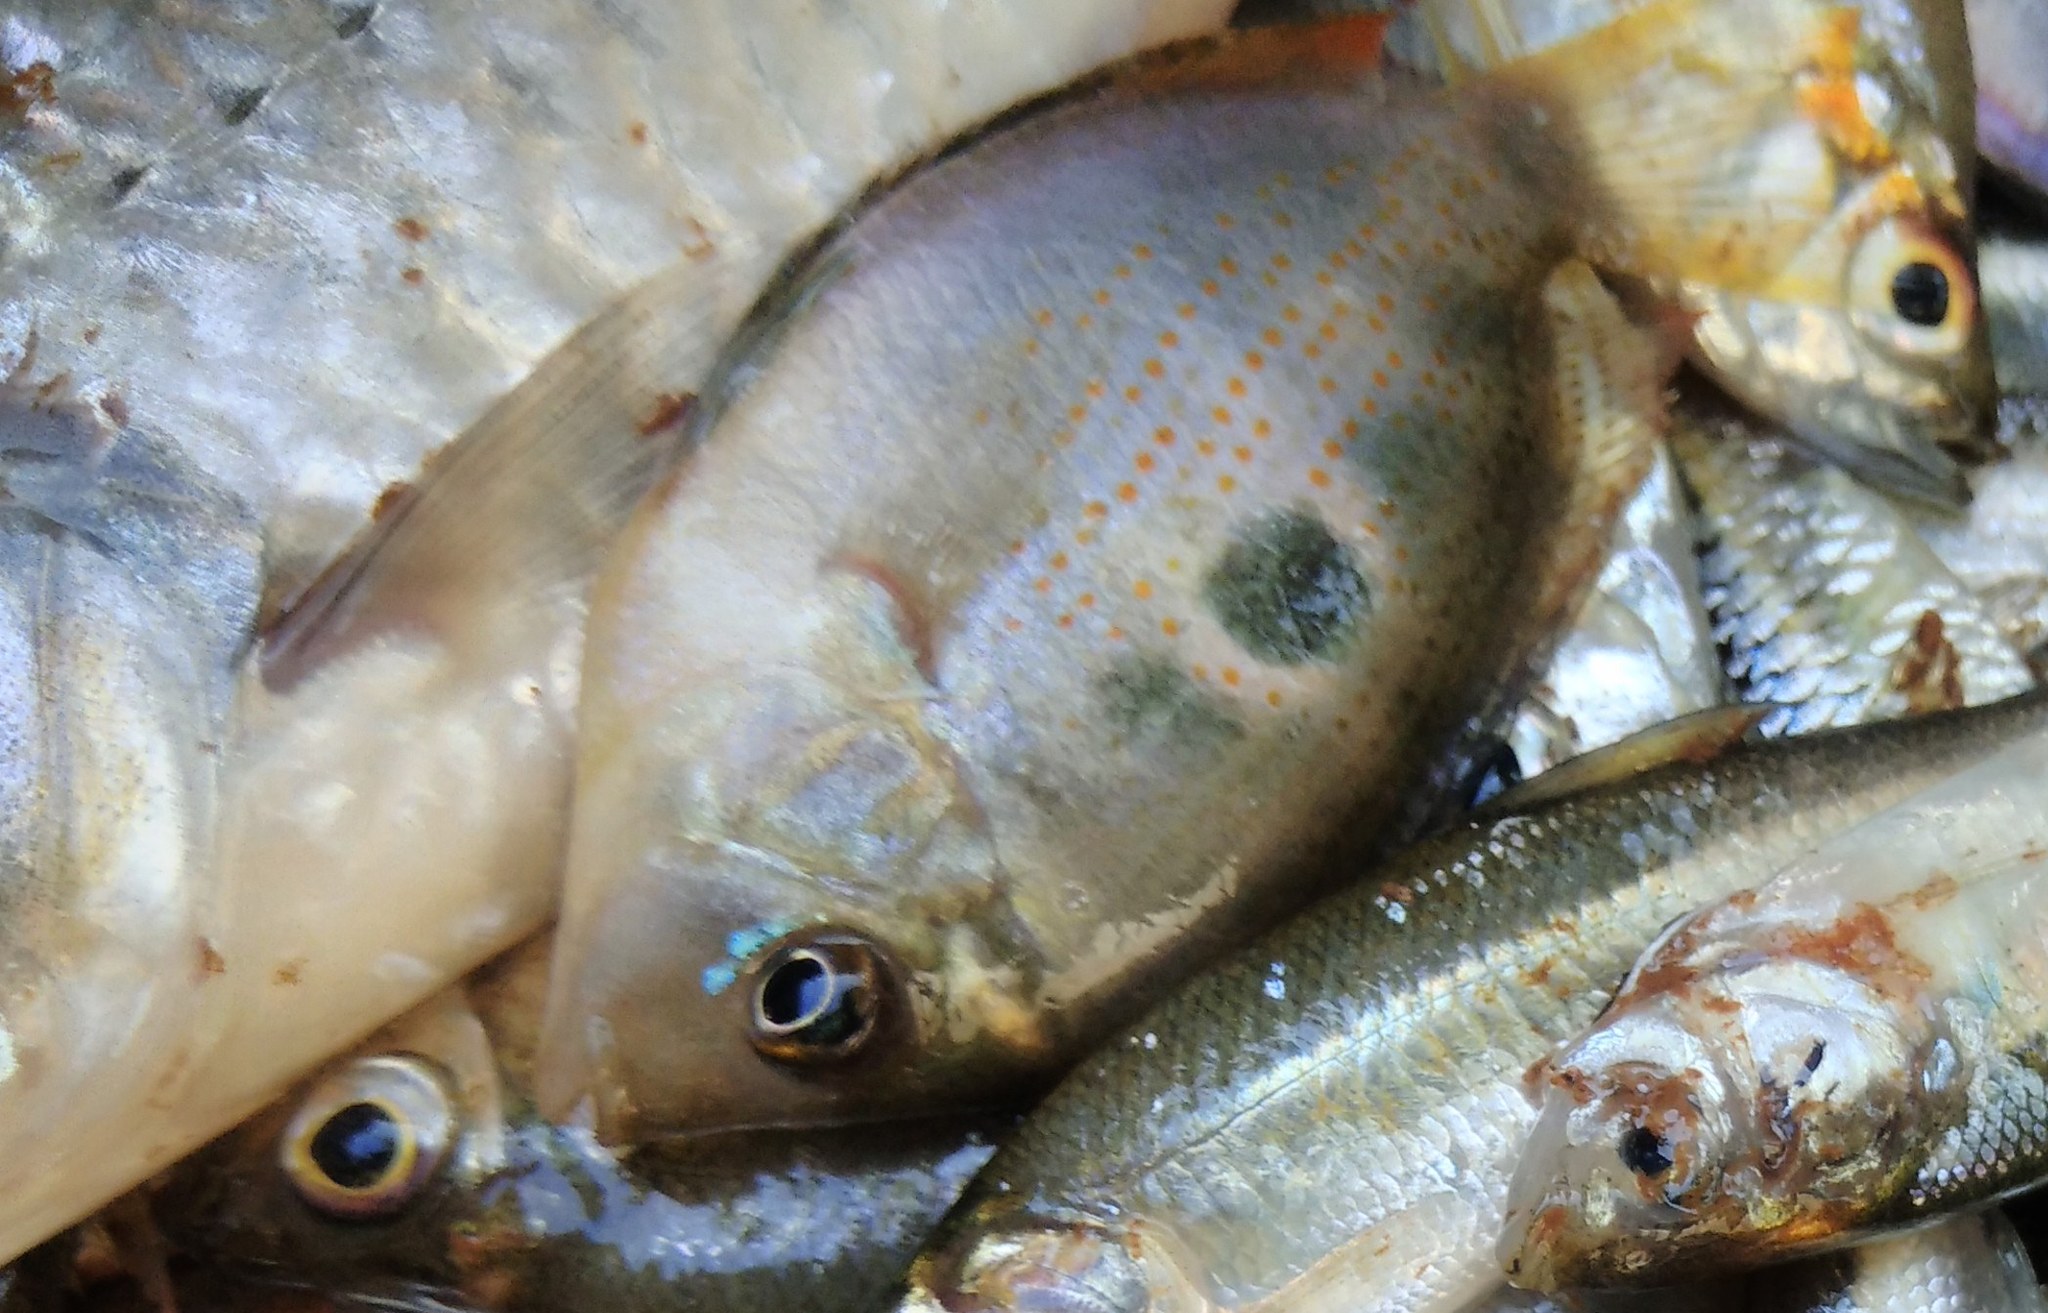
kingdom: Animalia
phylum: Chordata
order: Perciformes
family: Cichlidae
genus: Etroplus
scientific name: Etroplus maculatus
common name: Orange chromide
